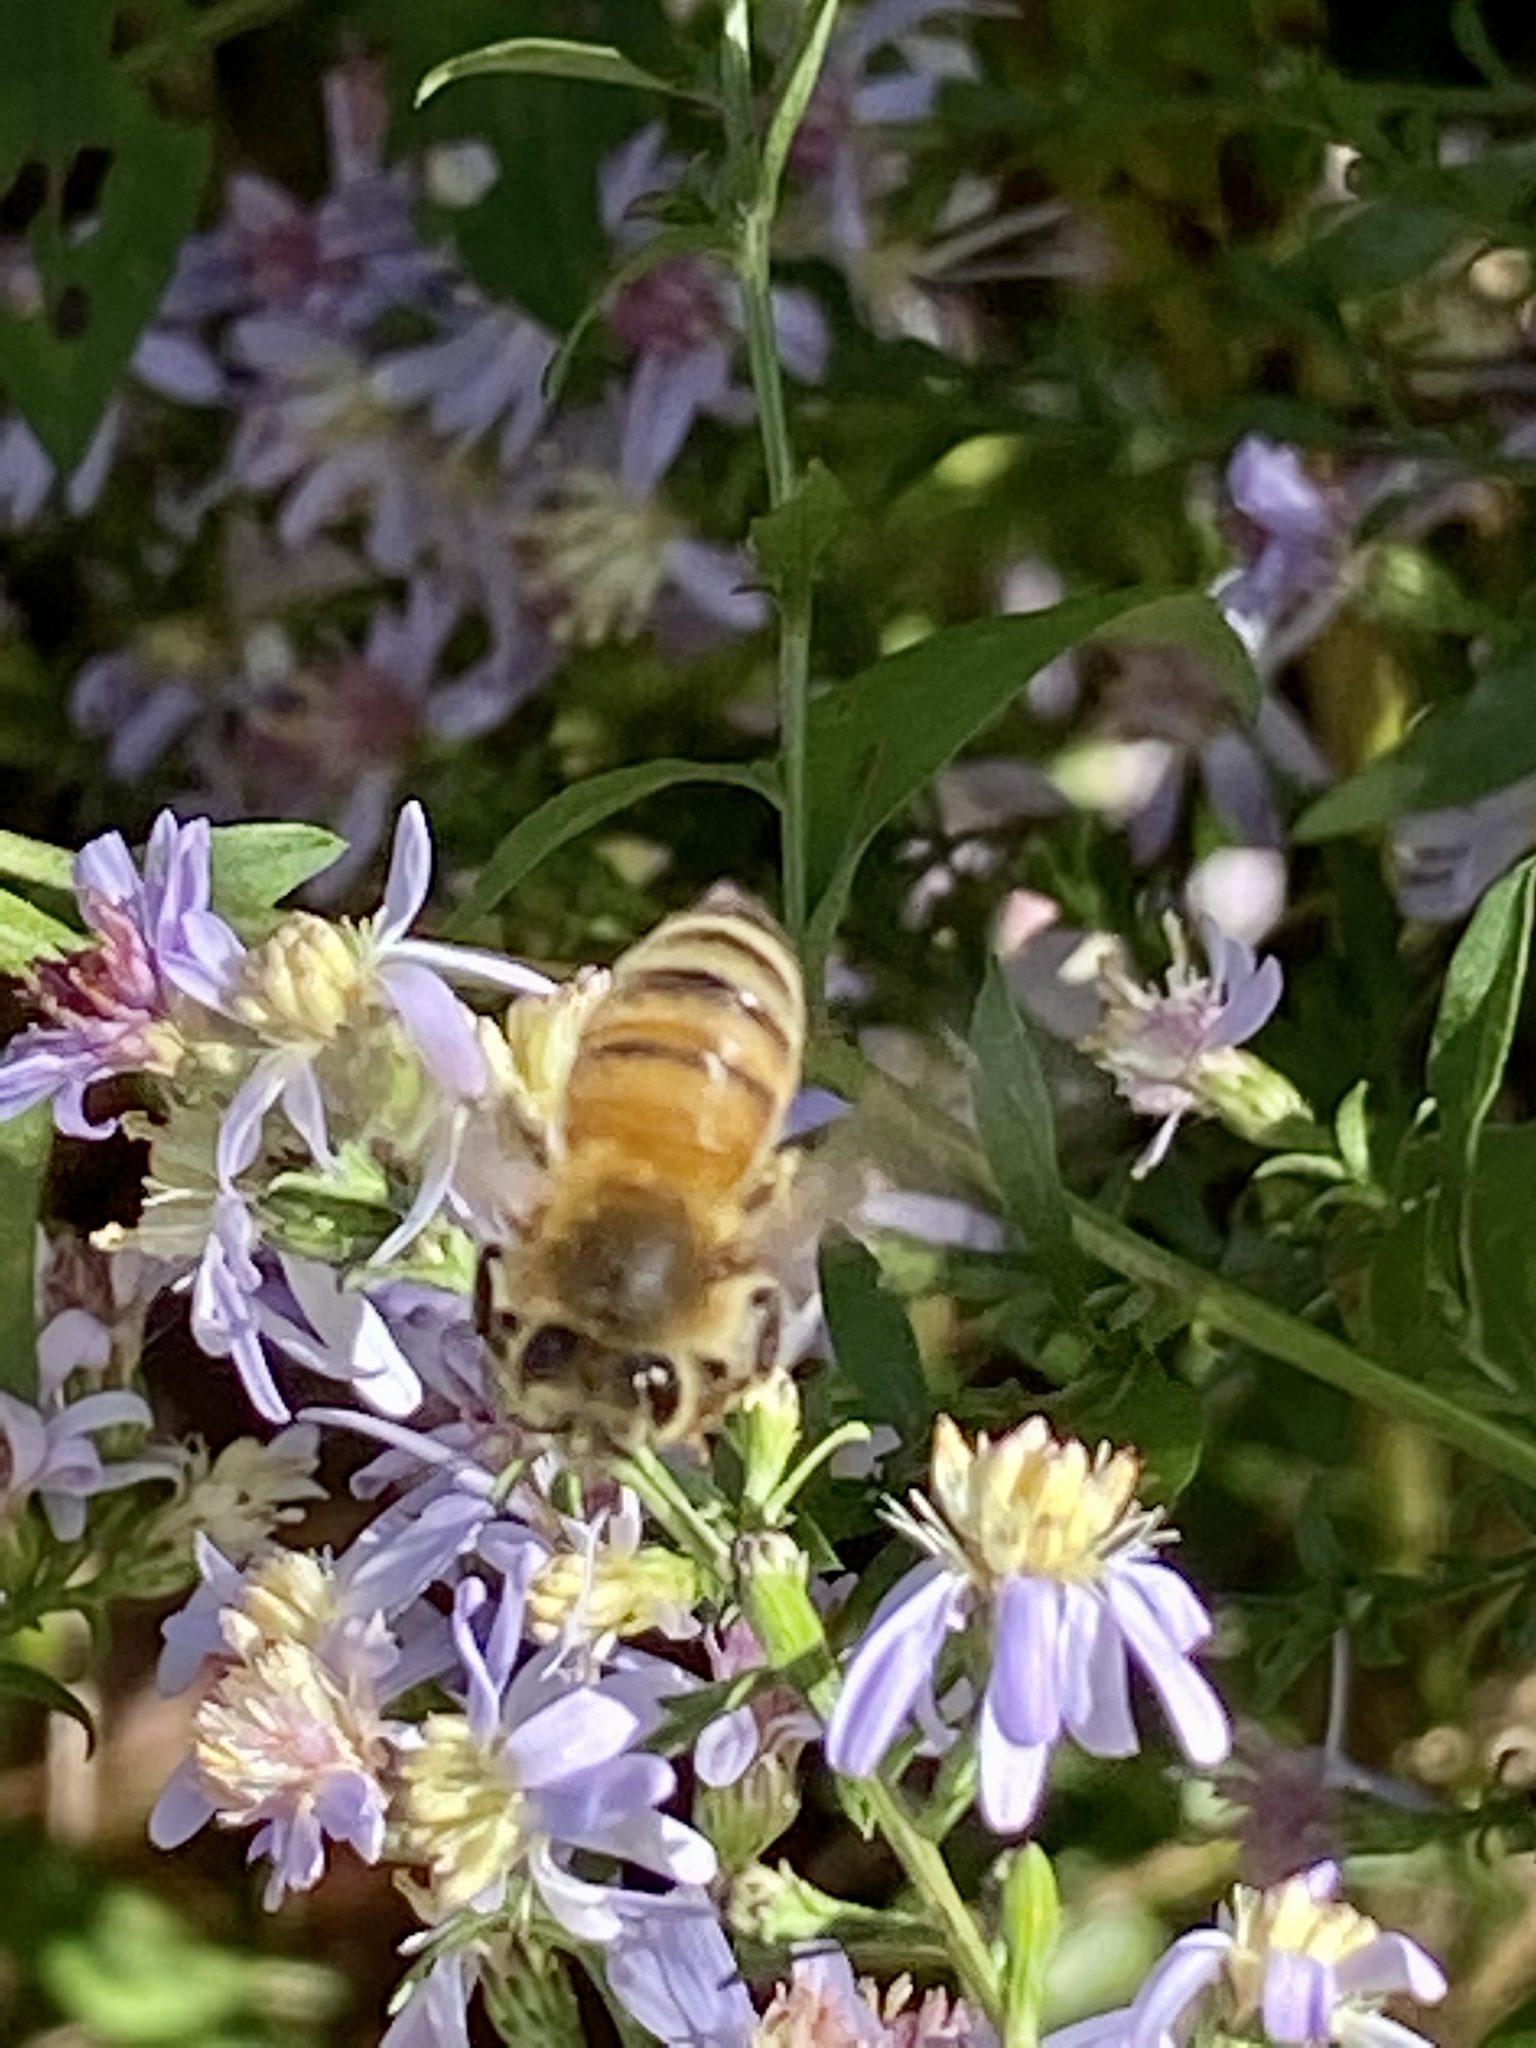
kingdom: Animalia
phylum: Arthropoda
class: Insecta
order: Hymenoptera
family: Apidae
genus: Apis
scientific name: Apis mellifera
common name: Honey bee
